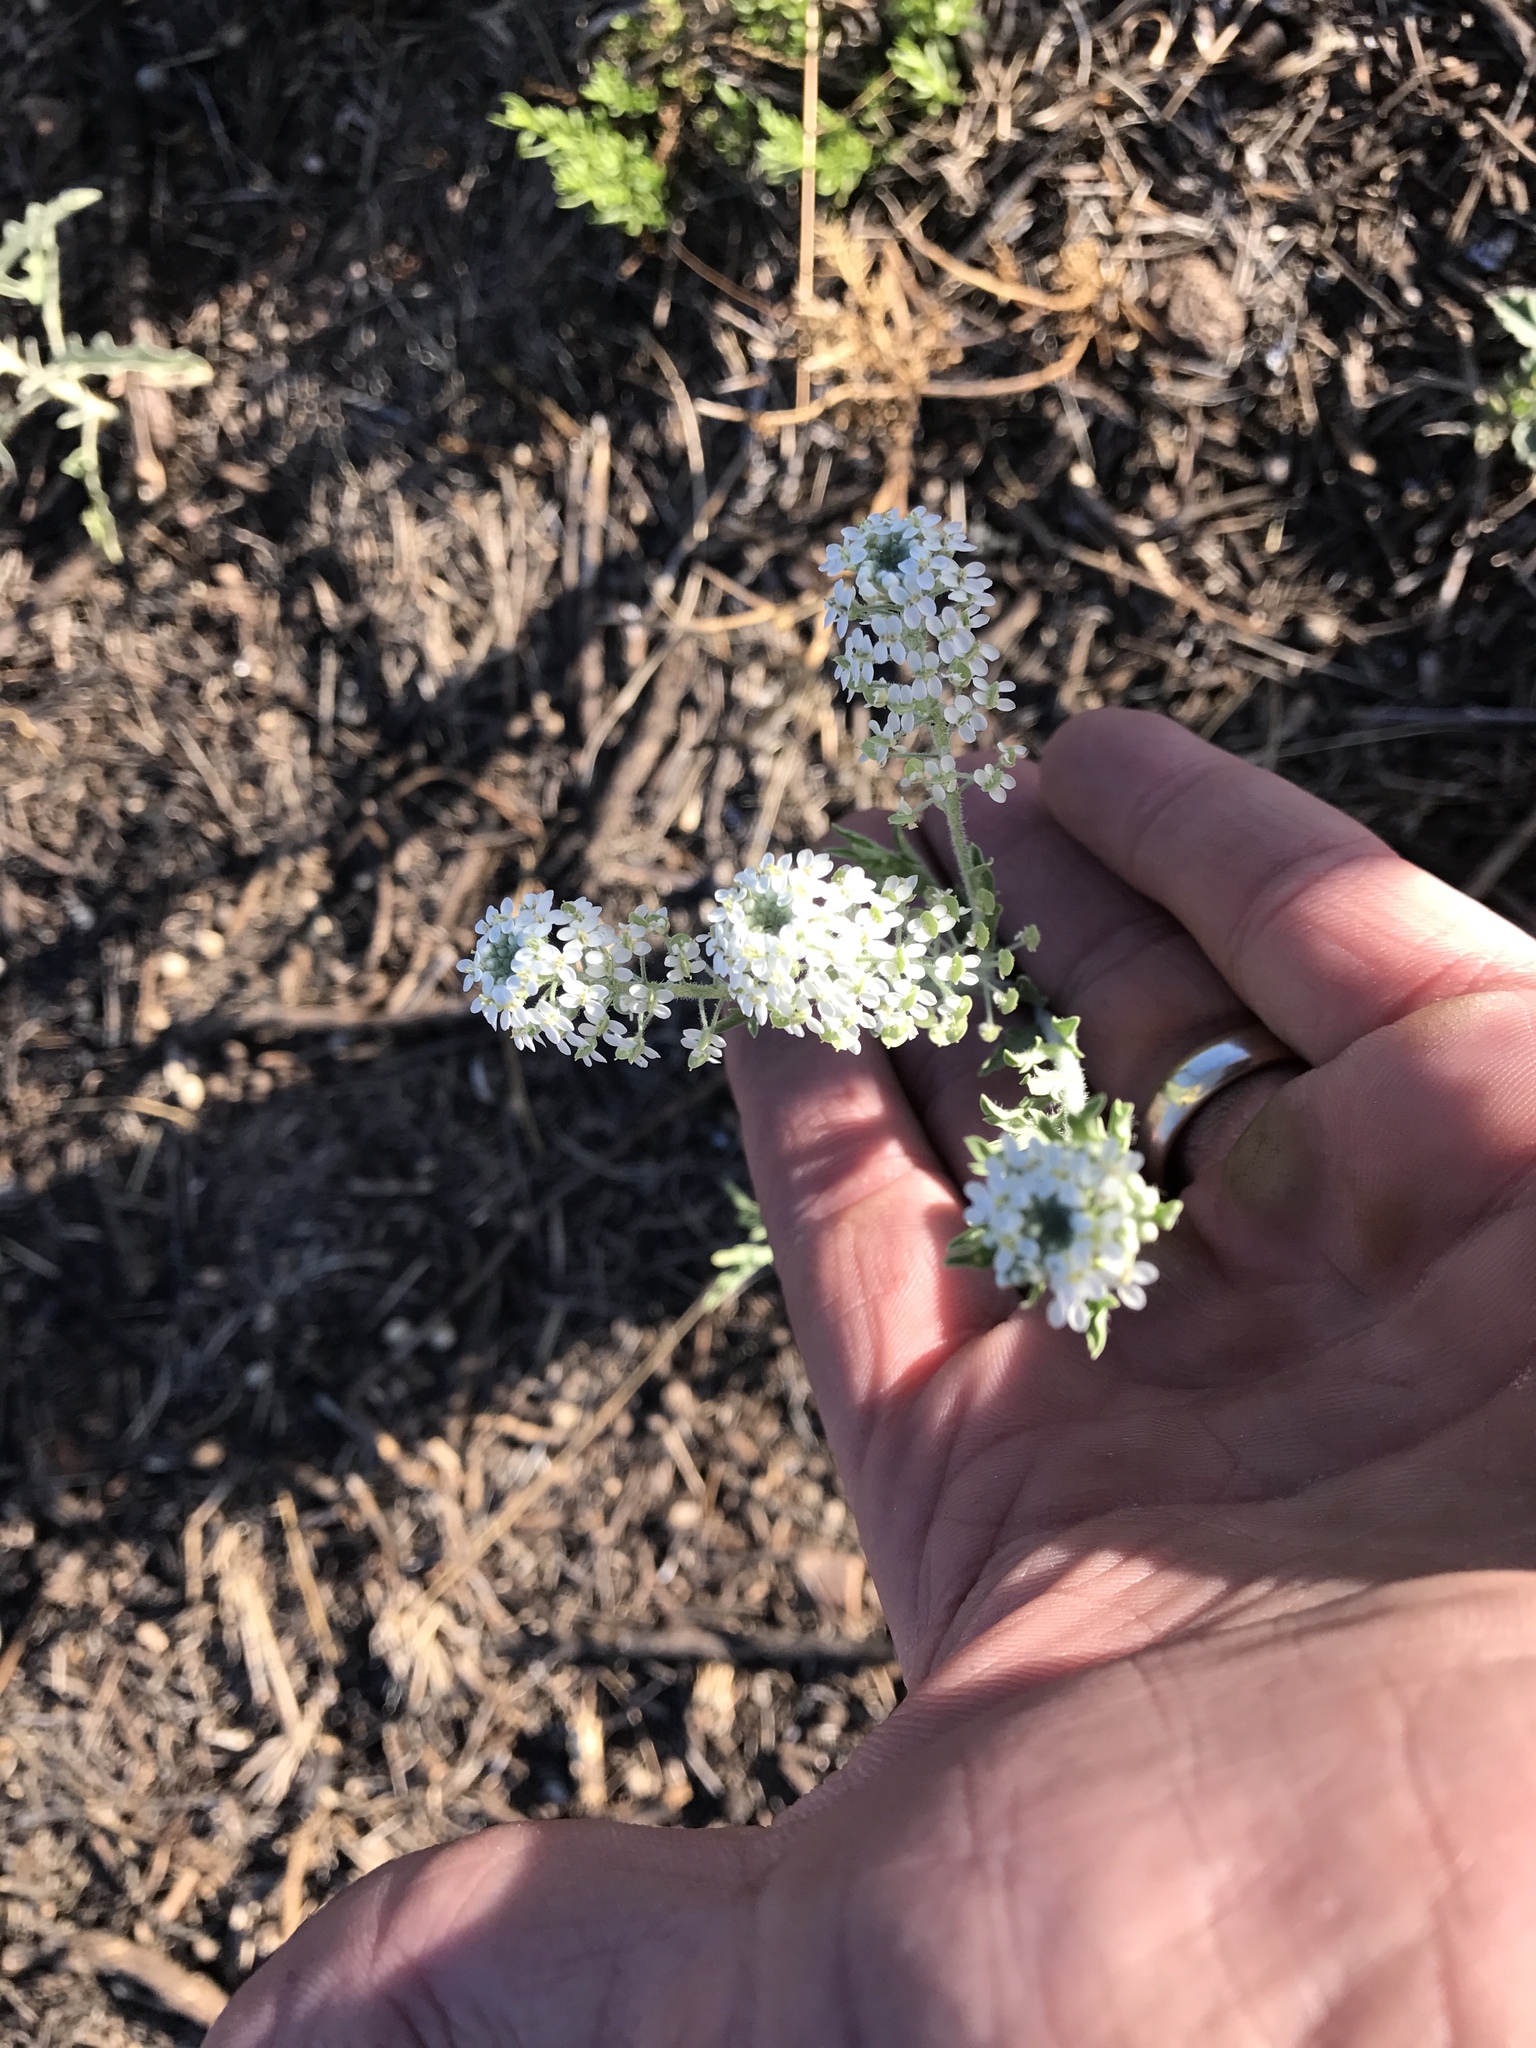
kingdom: Plantae
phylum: Tracheophyta
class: Magnoliopsida
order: Brassicales
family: Brassicaceae
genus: Lepidium
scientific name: Lepidium thurberi
